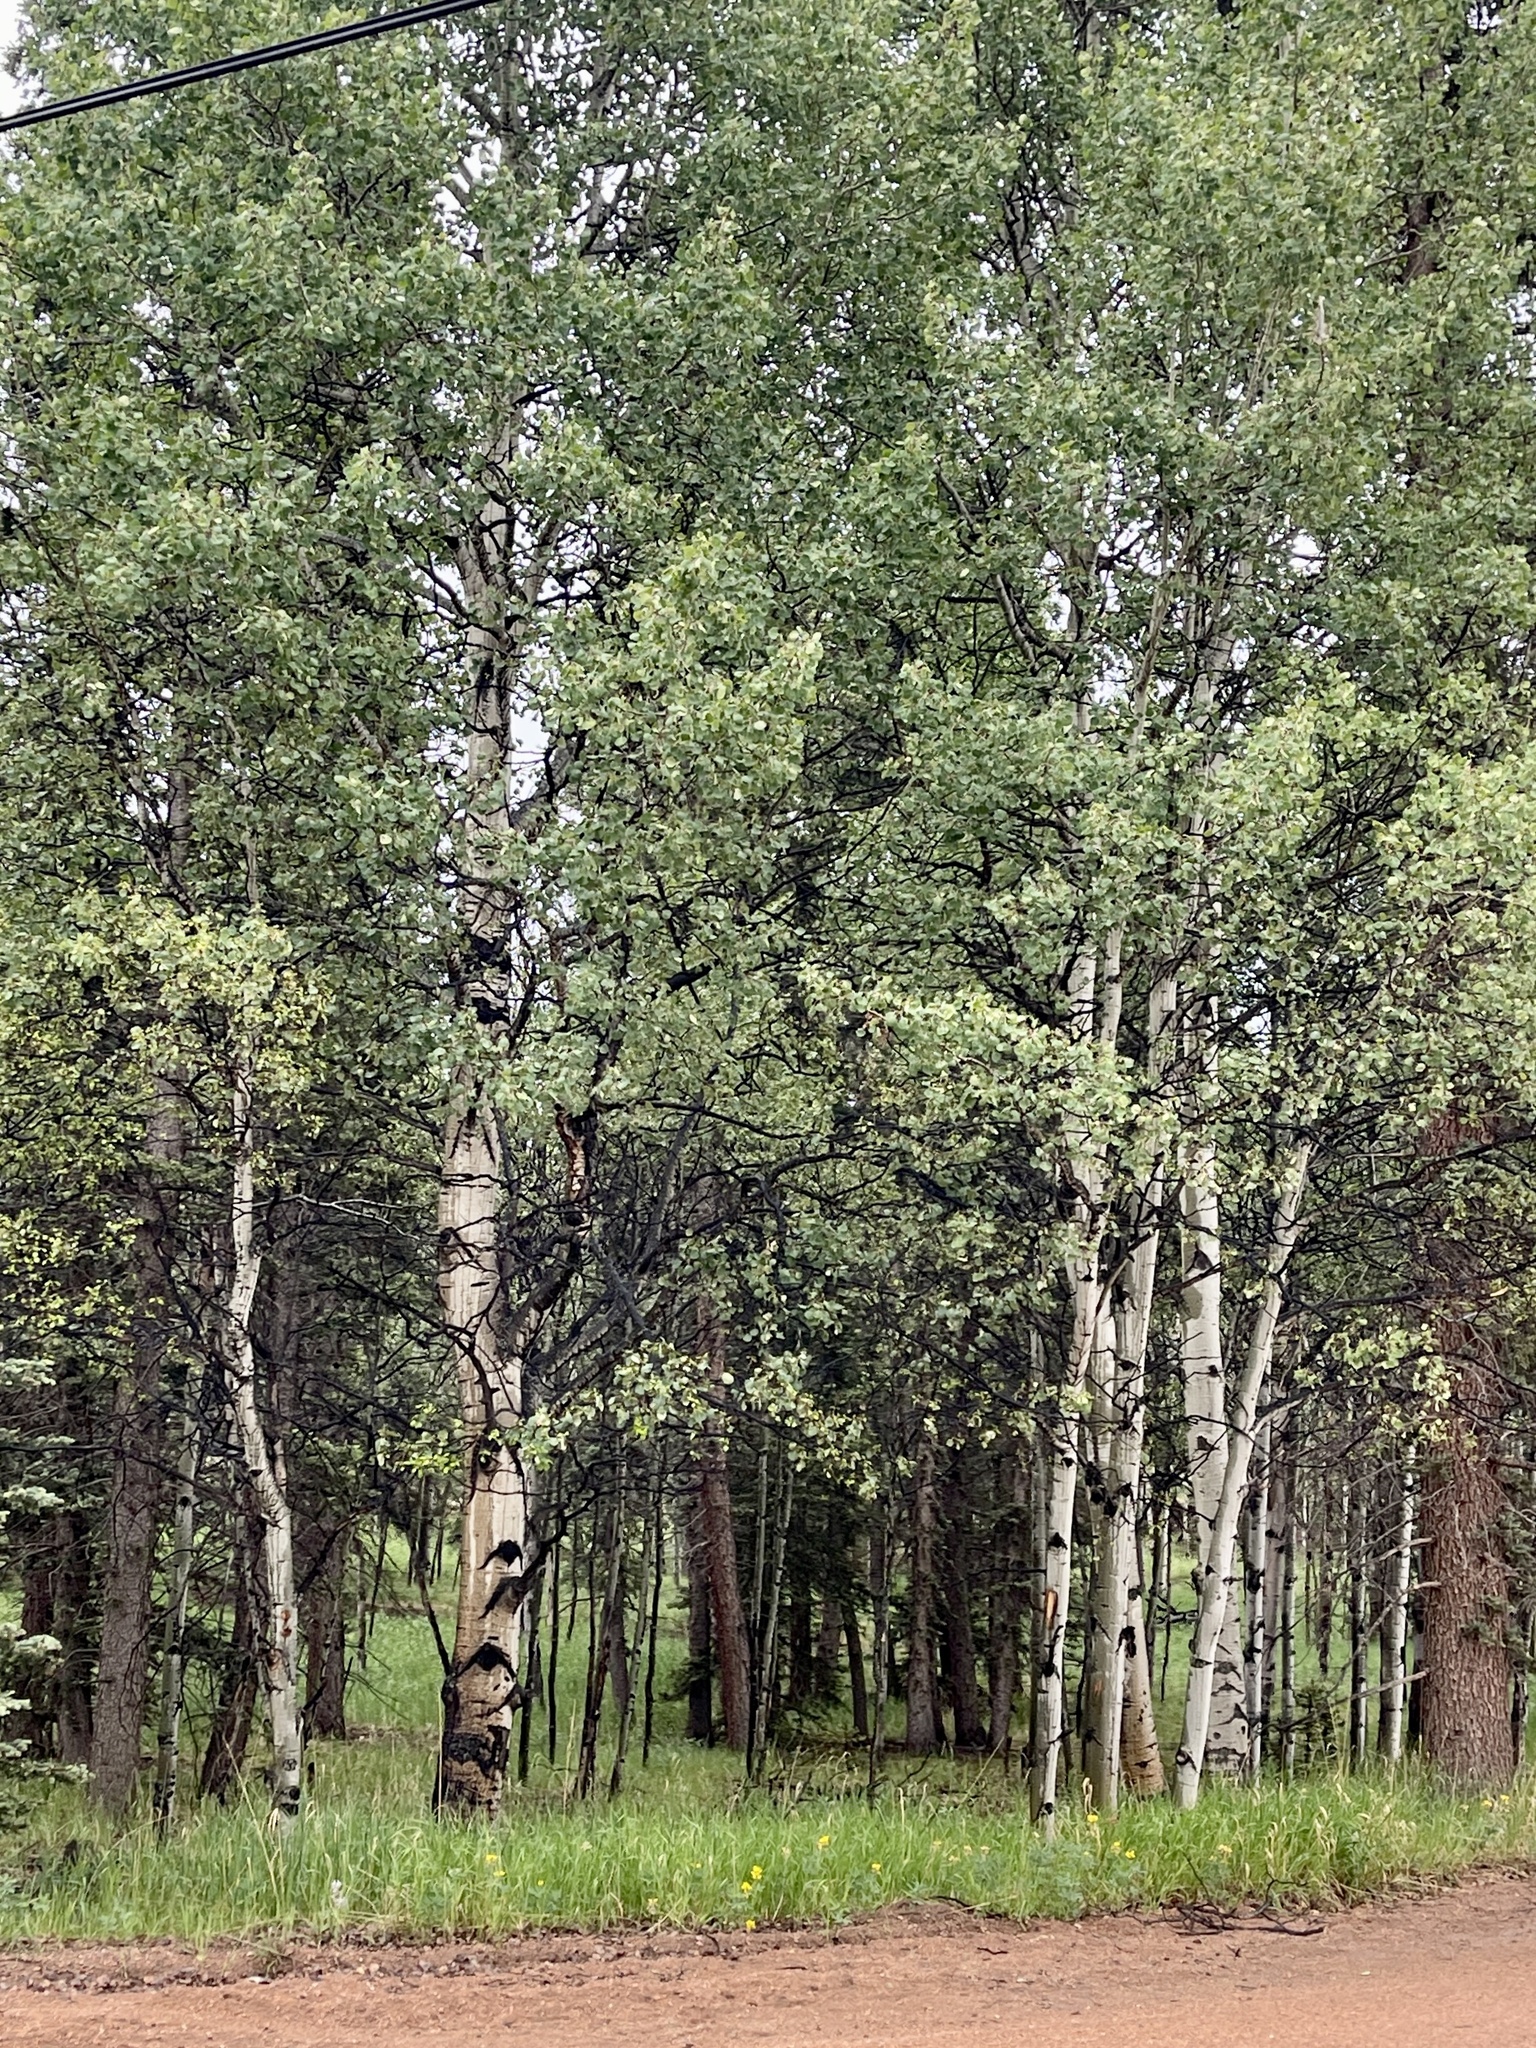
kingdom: Plantae
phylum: Tracheophyta
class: Magnoliopsida
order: Malpighiales
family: Salicaceae
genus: Populus
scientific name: Populus tremuloides
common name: Quaking aspen
